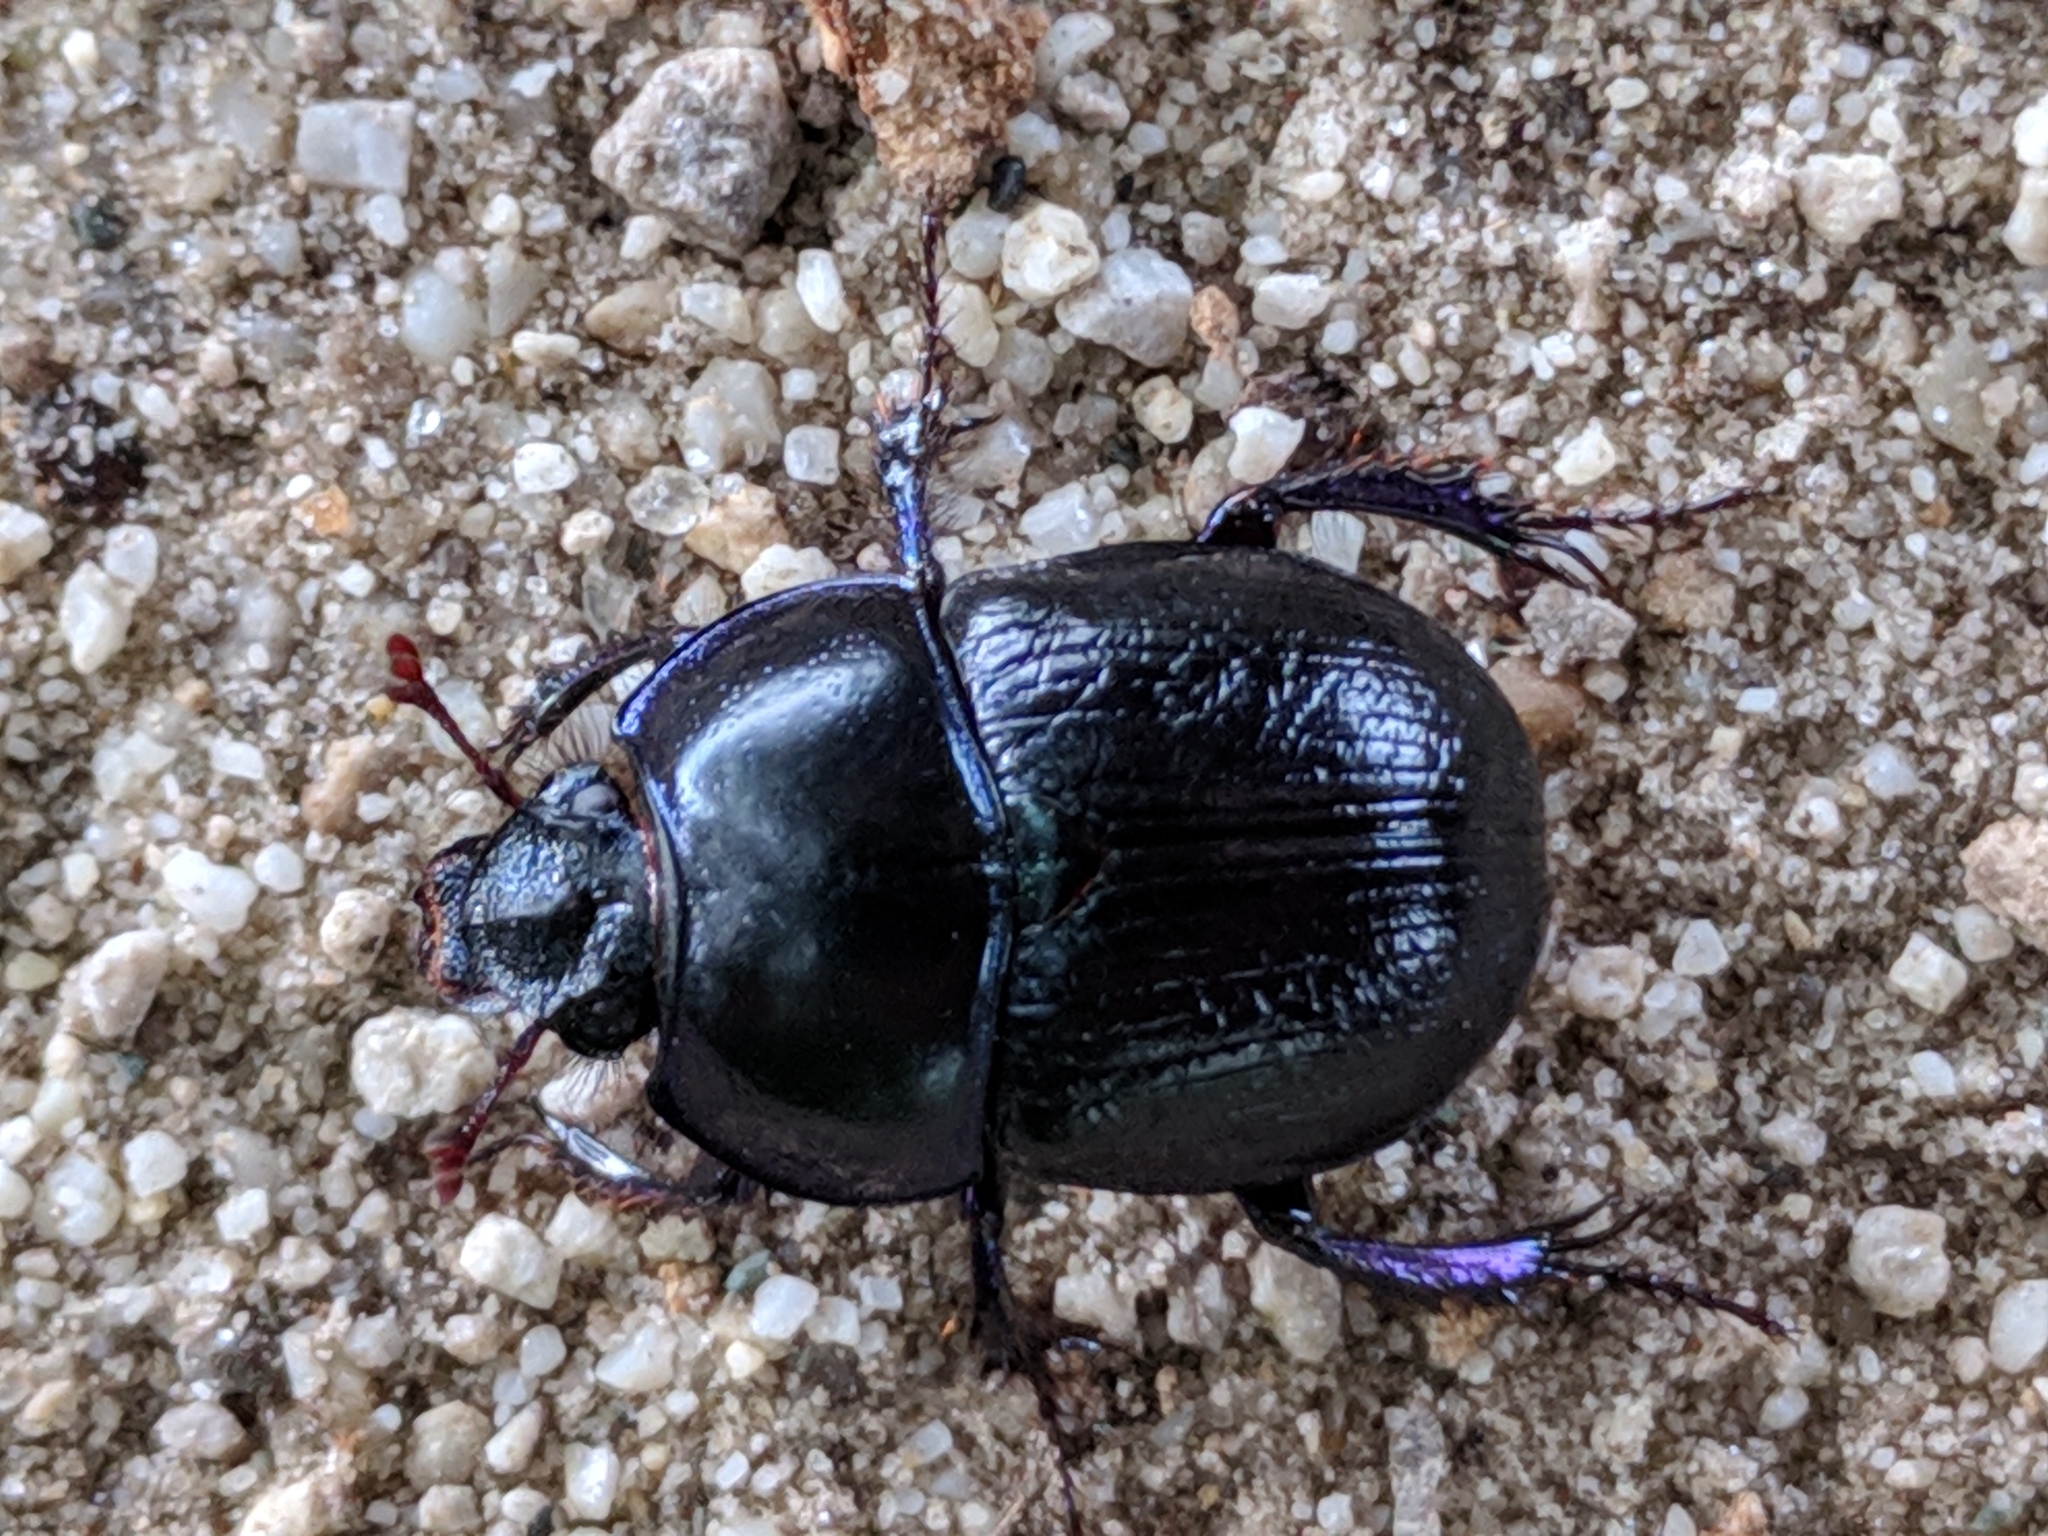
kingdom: Animalia
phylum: Arthropoda
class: Insecta
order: Coleoptera
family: Geotrupidae
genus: Anoplotrupes
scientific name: Anoplotrupes stercorosus
